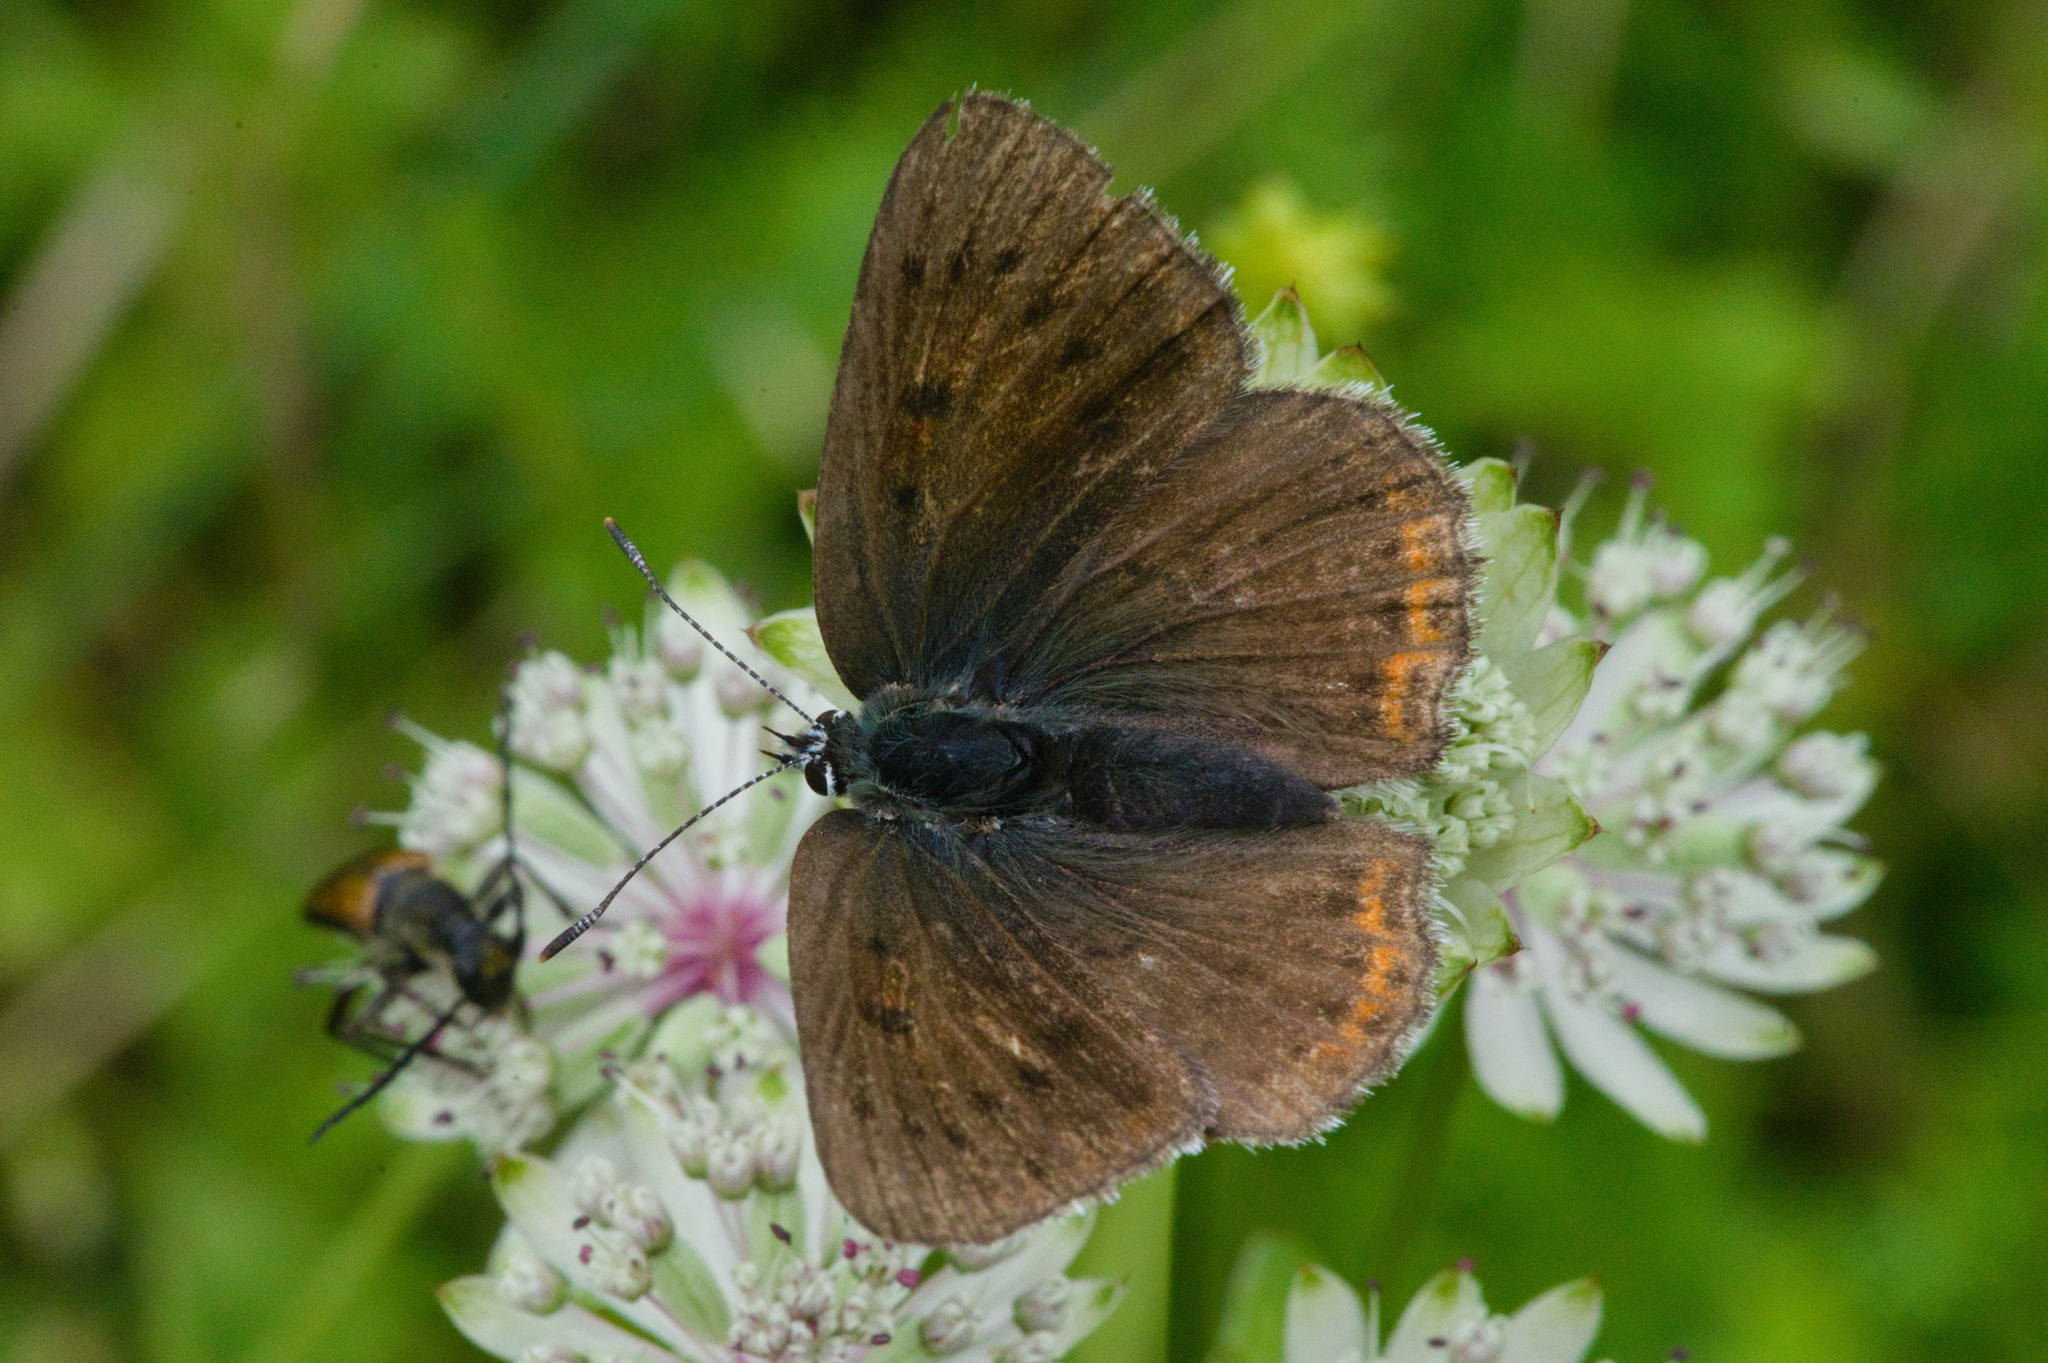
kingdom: Animalia
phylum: Arthropoda
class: Insecta
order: Lepidoptera
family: Lycaenidae
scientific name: Lycaenidae
